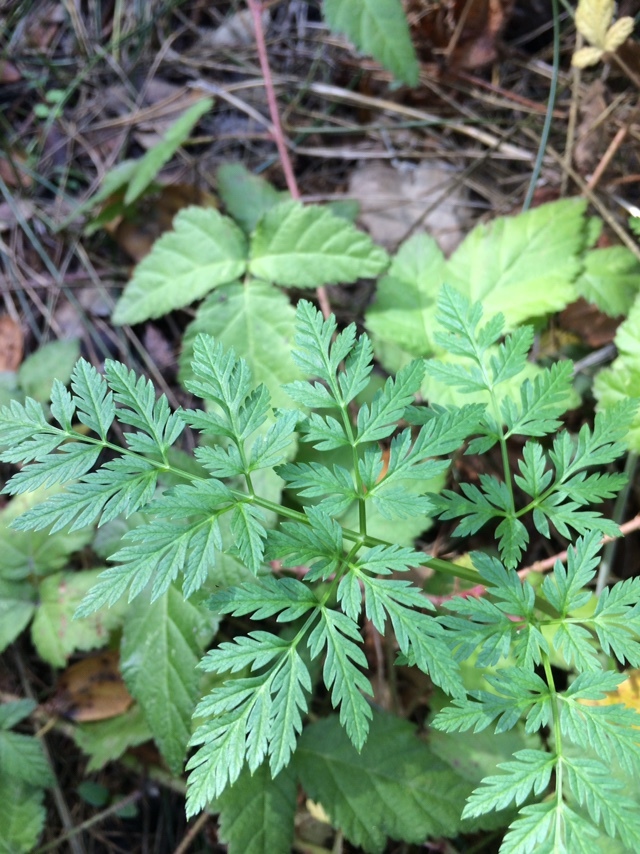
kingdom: Plantae
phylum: Tracheophyta
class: Magnoliopsida
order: Apiales
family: Apiaceae
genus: Conium
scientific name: Conium maculatum
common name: Hemlock
